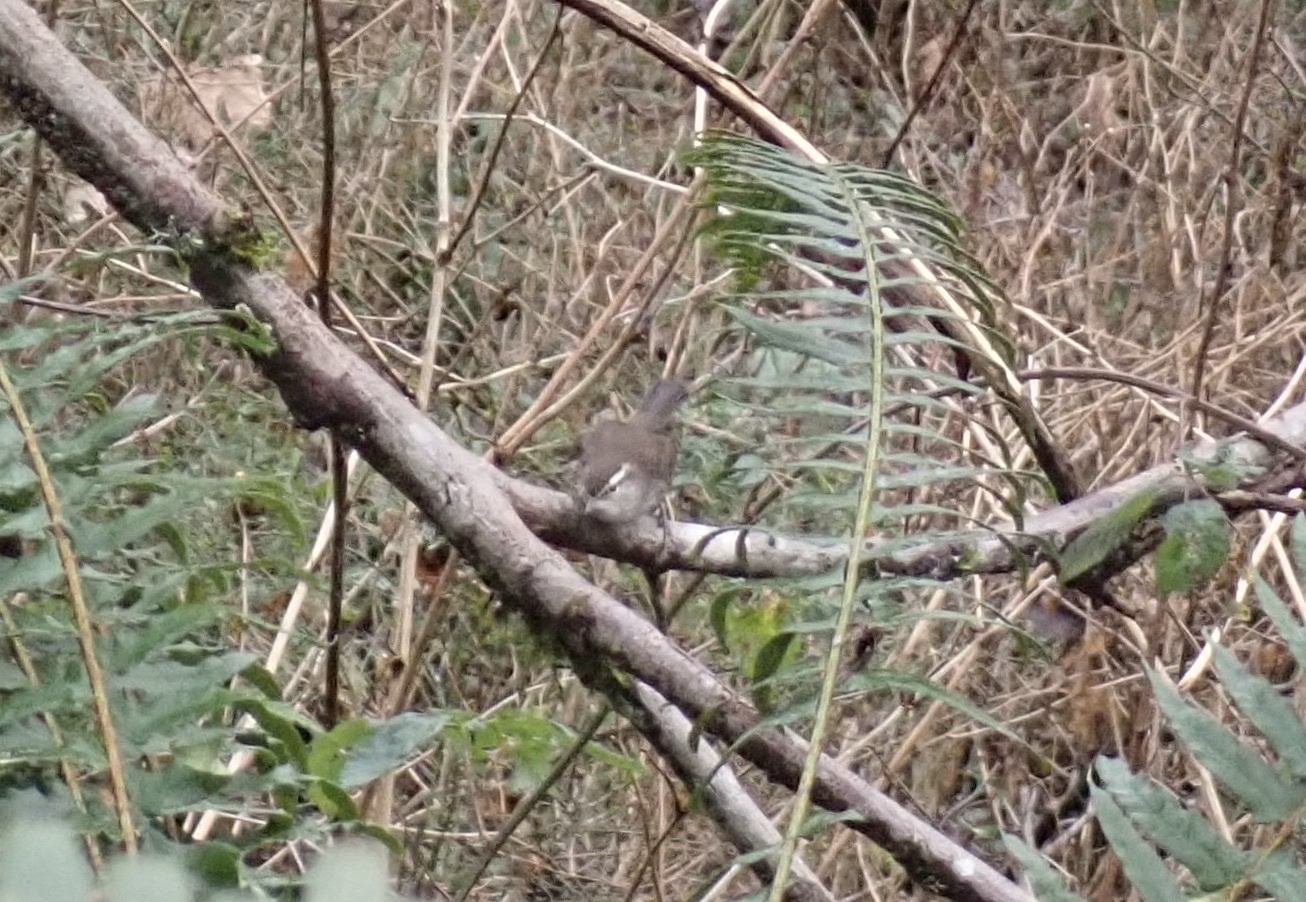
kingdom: Animalia
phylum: Chordata
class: Aves
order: Passeriformes
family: Troglodytidae
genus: Thryomanes
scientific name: Thryomanes bewickii
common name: Bewick's wren
